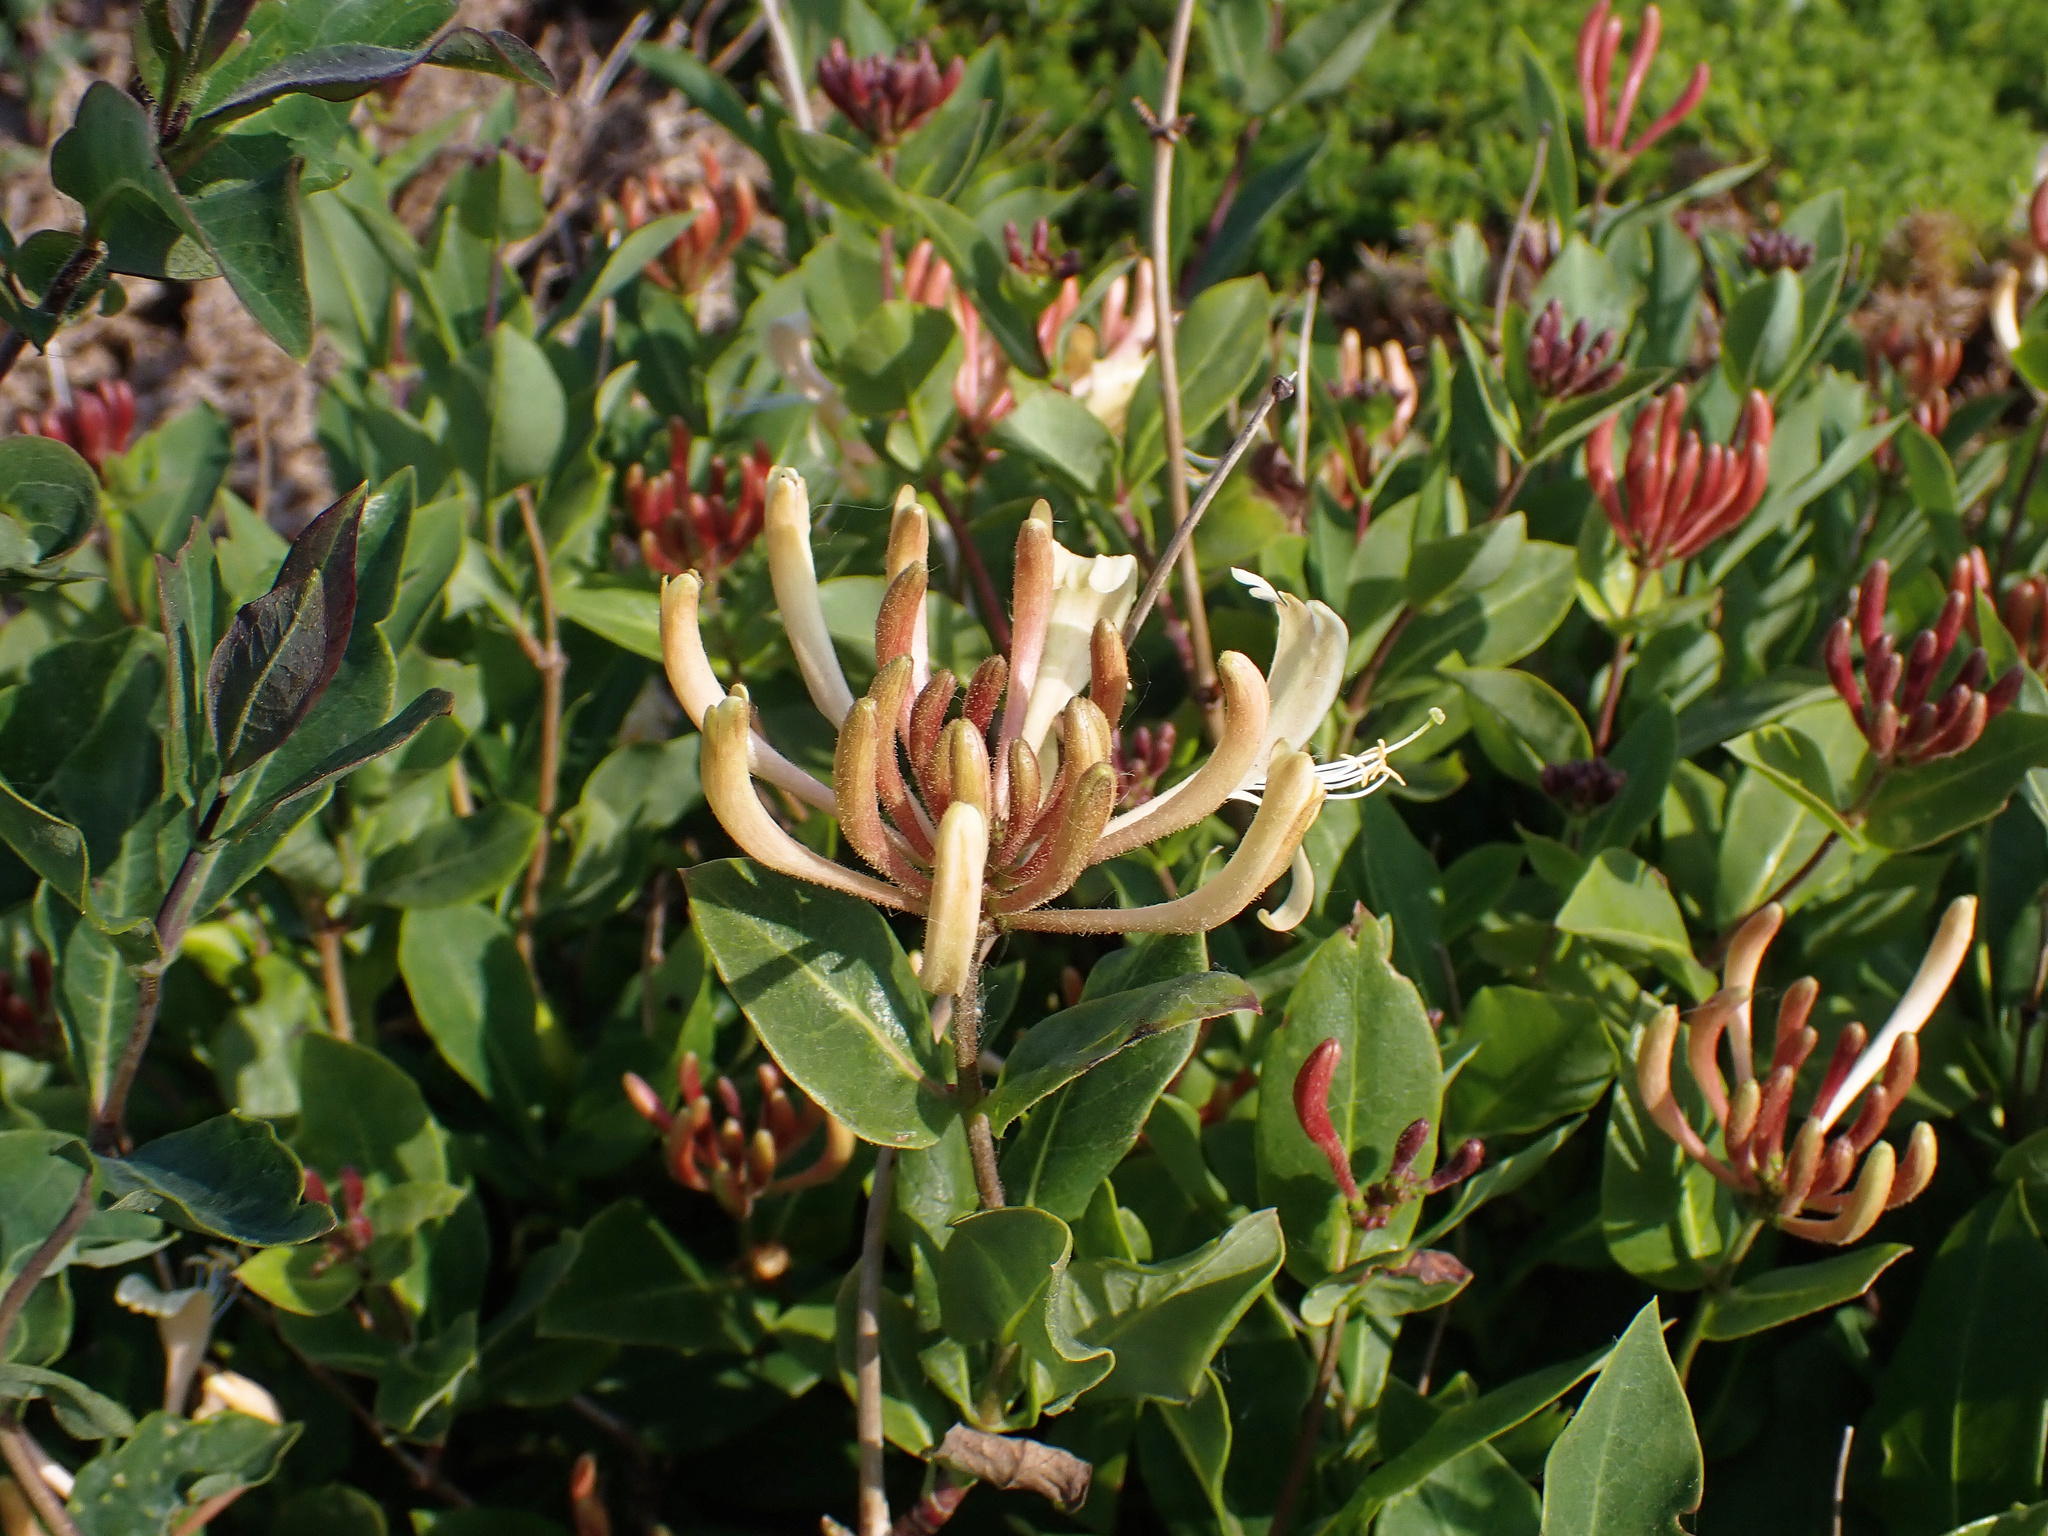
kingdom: Plantae
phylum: Tracheophyta
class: Magnoliopsida
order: Dipsacales
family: Caprifoliaceae
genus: Lonicera
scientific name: Lonicera periclymenum
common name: European honeysuckle
